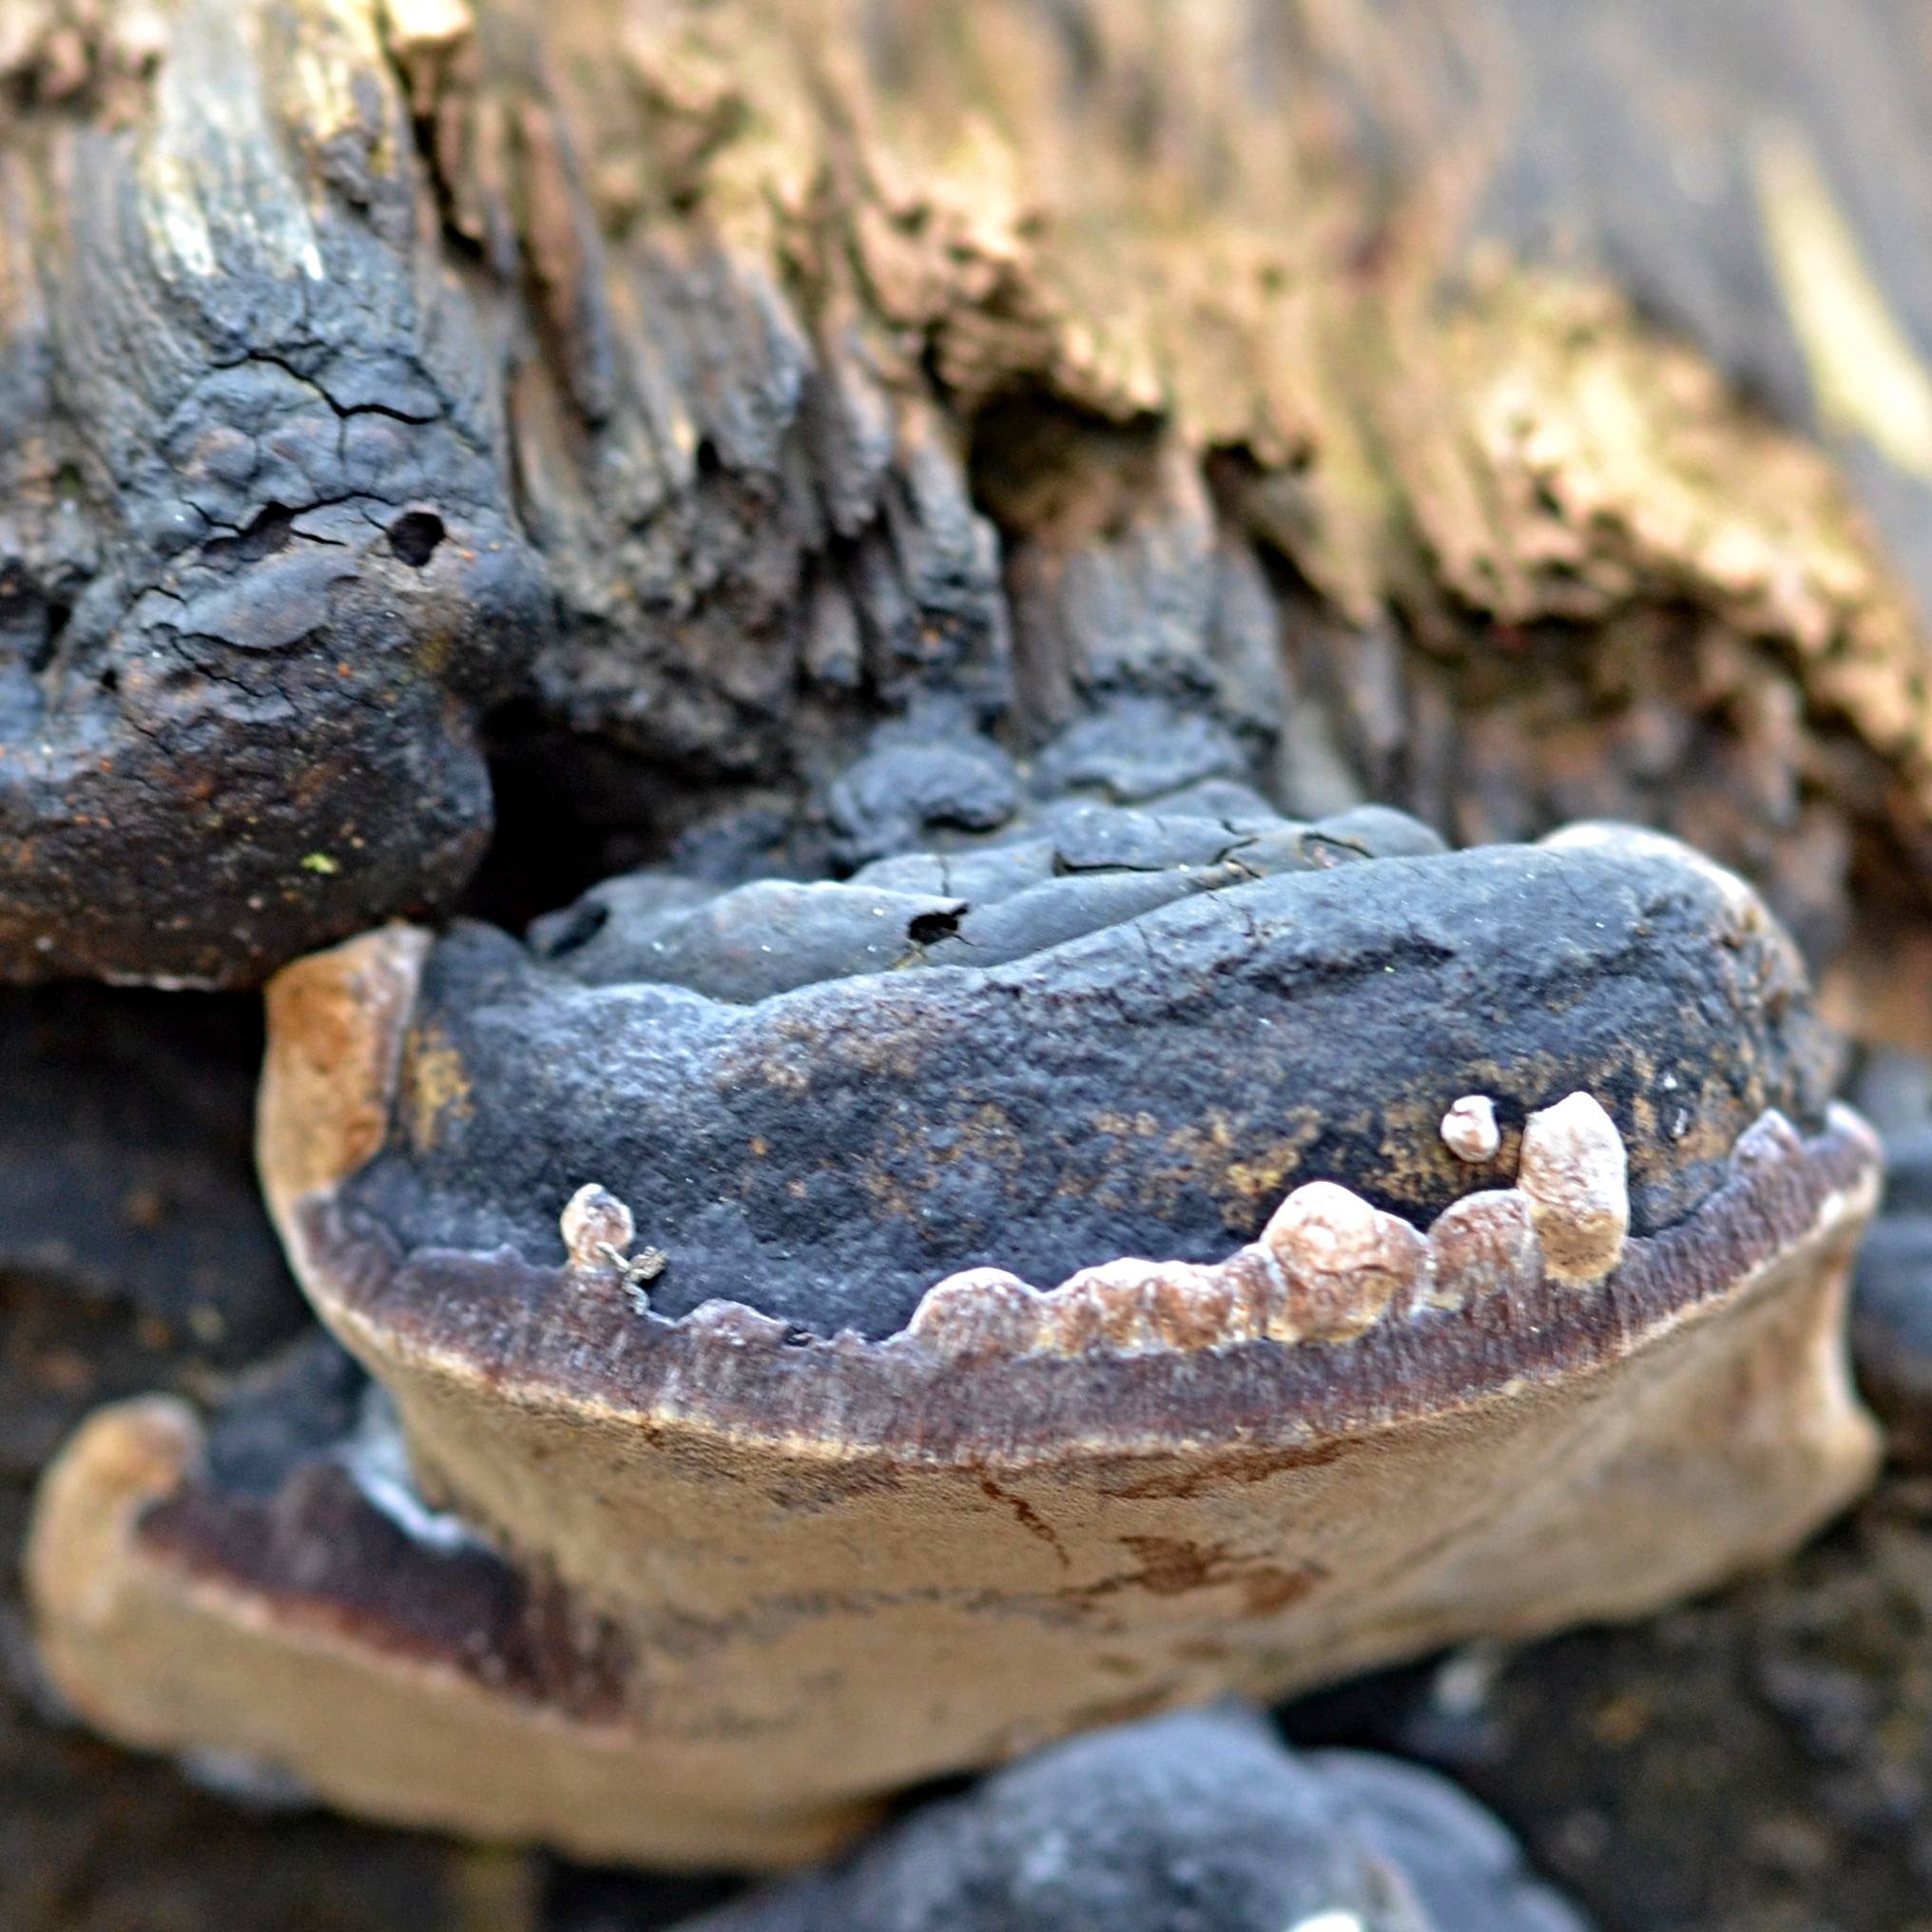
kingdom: Fungi
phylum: Basidiomycota
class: Agaricomycetes
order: Hymenochaetales
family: Hymenochaetaceae
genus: Phellinus
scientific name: Phellinus igniarius
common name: Willow bracket
